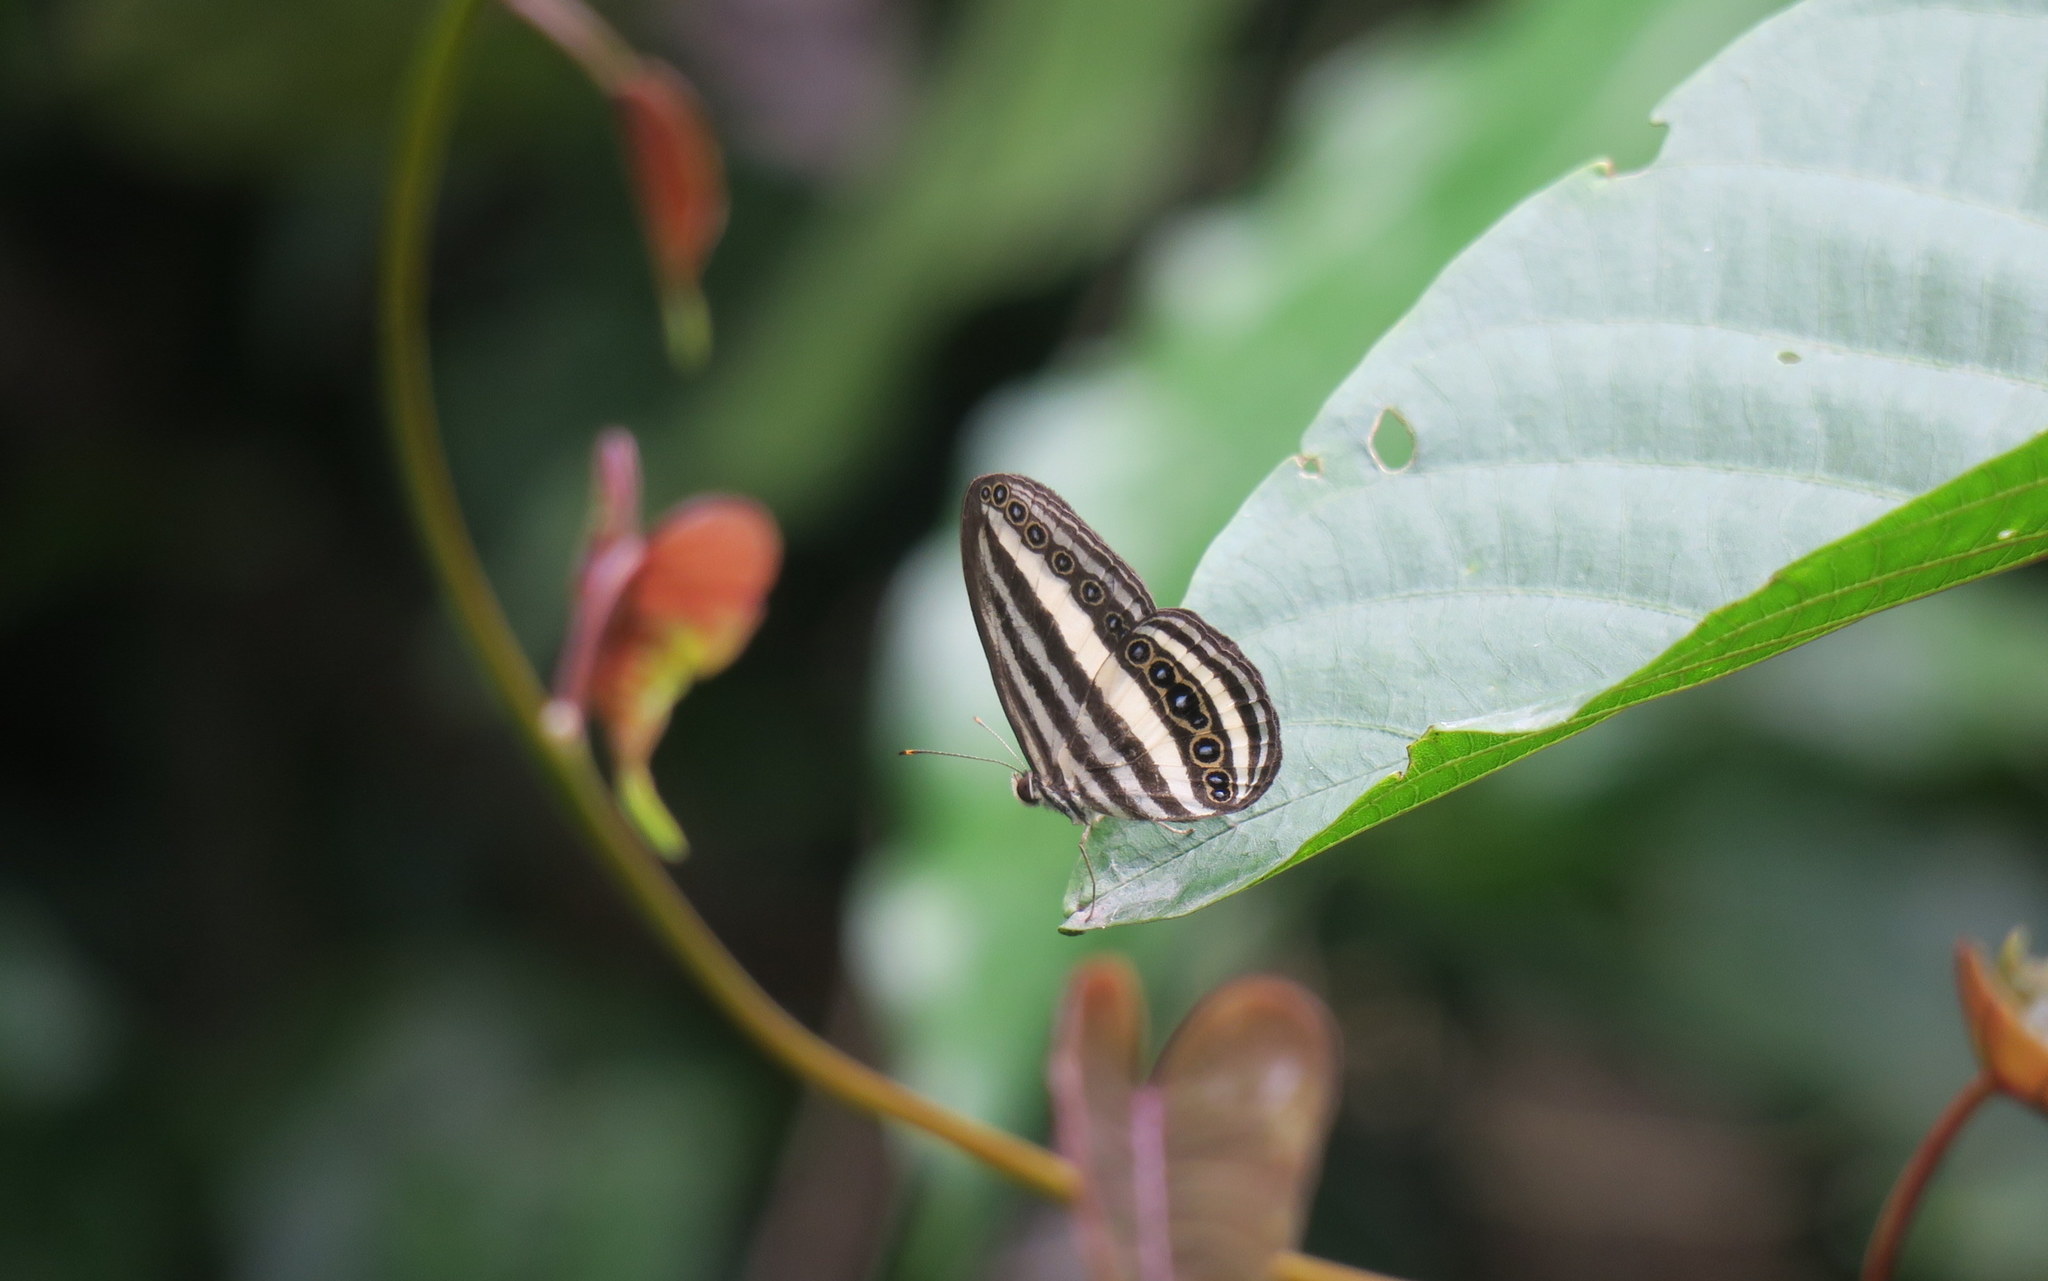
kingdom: Animalia
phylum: Arthropoda
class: Insecta
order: Lepidoptera
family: Nymphalidae
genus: Ragadia
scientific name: Ragadia crisilda
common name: White-striped ringlet
